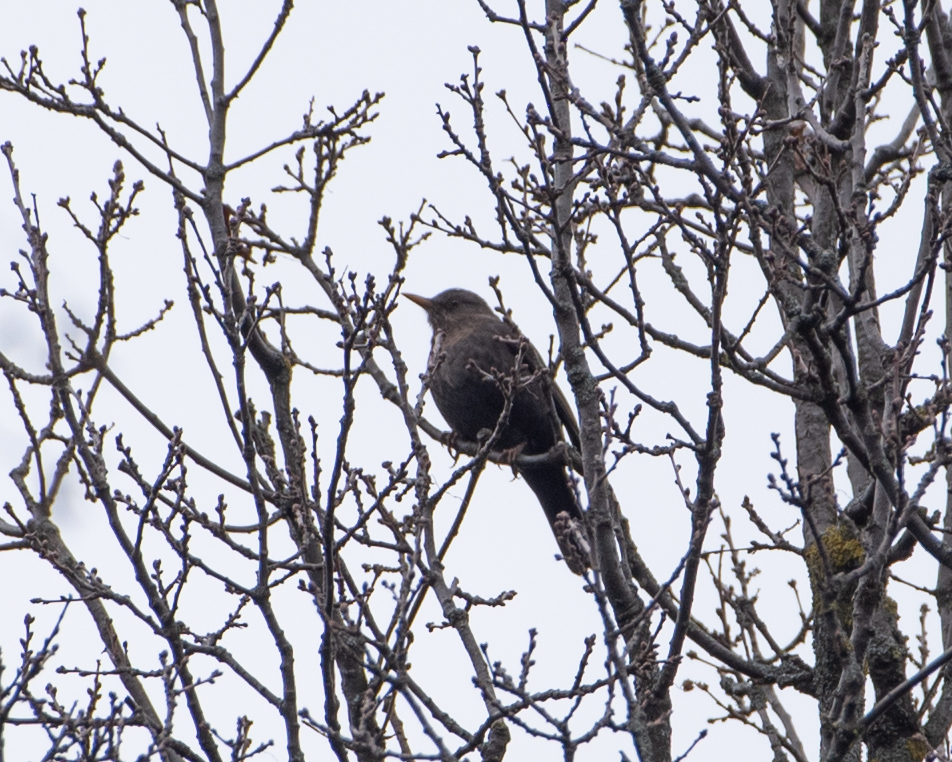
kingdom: Animalia
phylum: Chordata
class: Aves
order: Passeriformes
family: Sturnidae
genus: Sturnus
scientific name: Sturnus vulgaris
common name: Common starling
